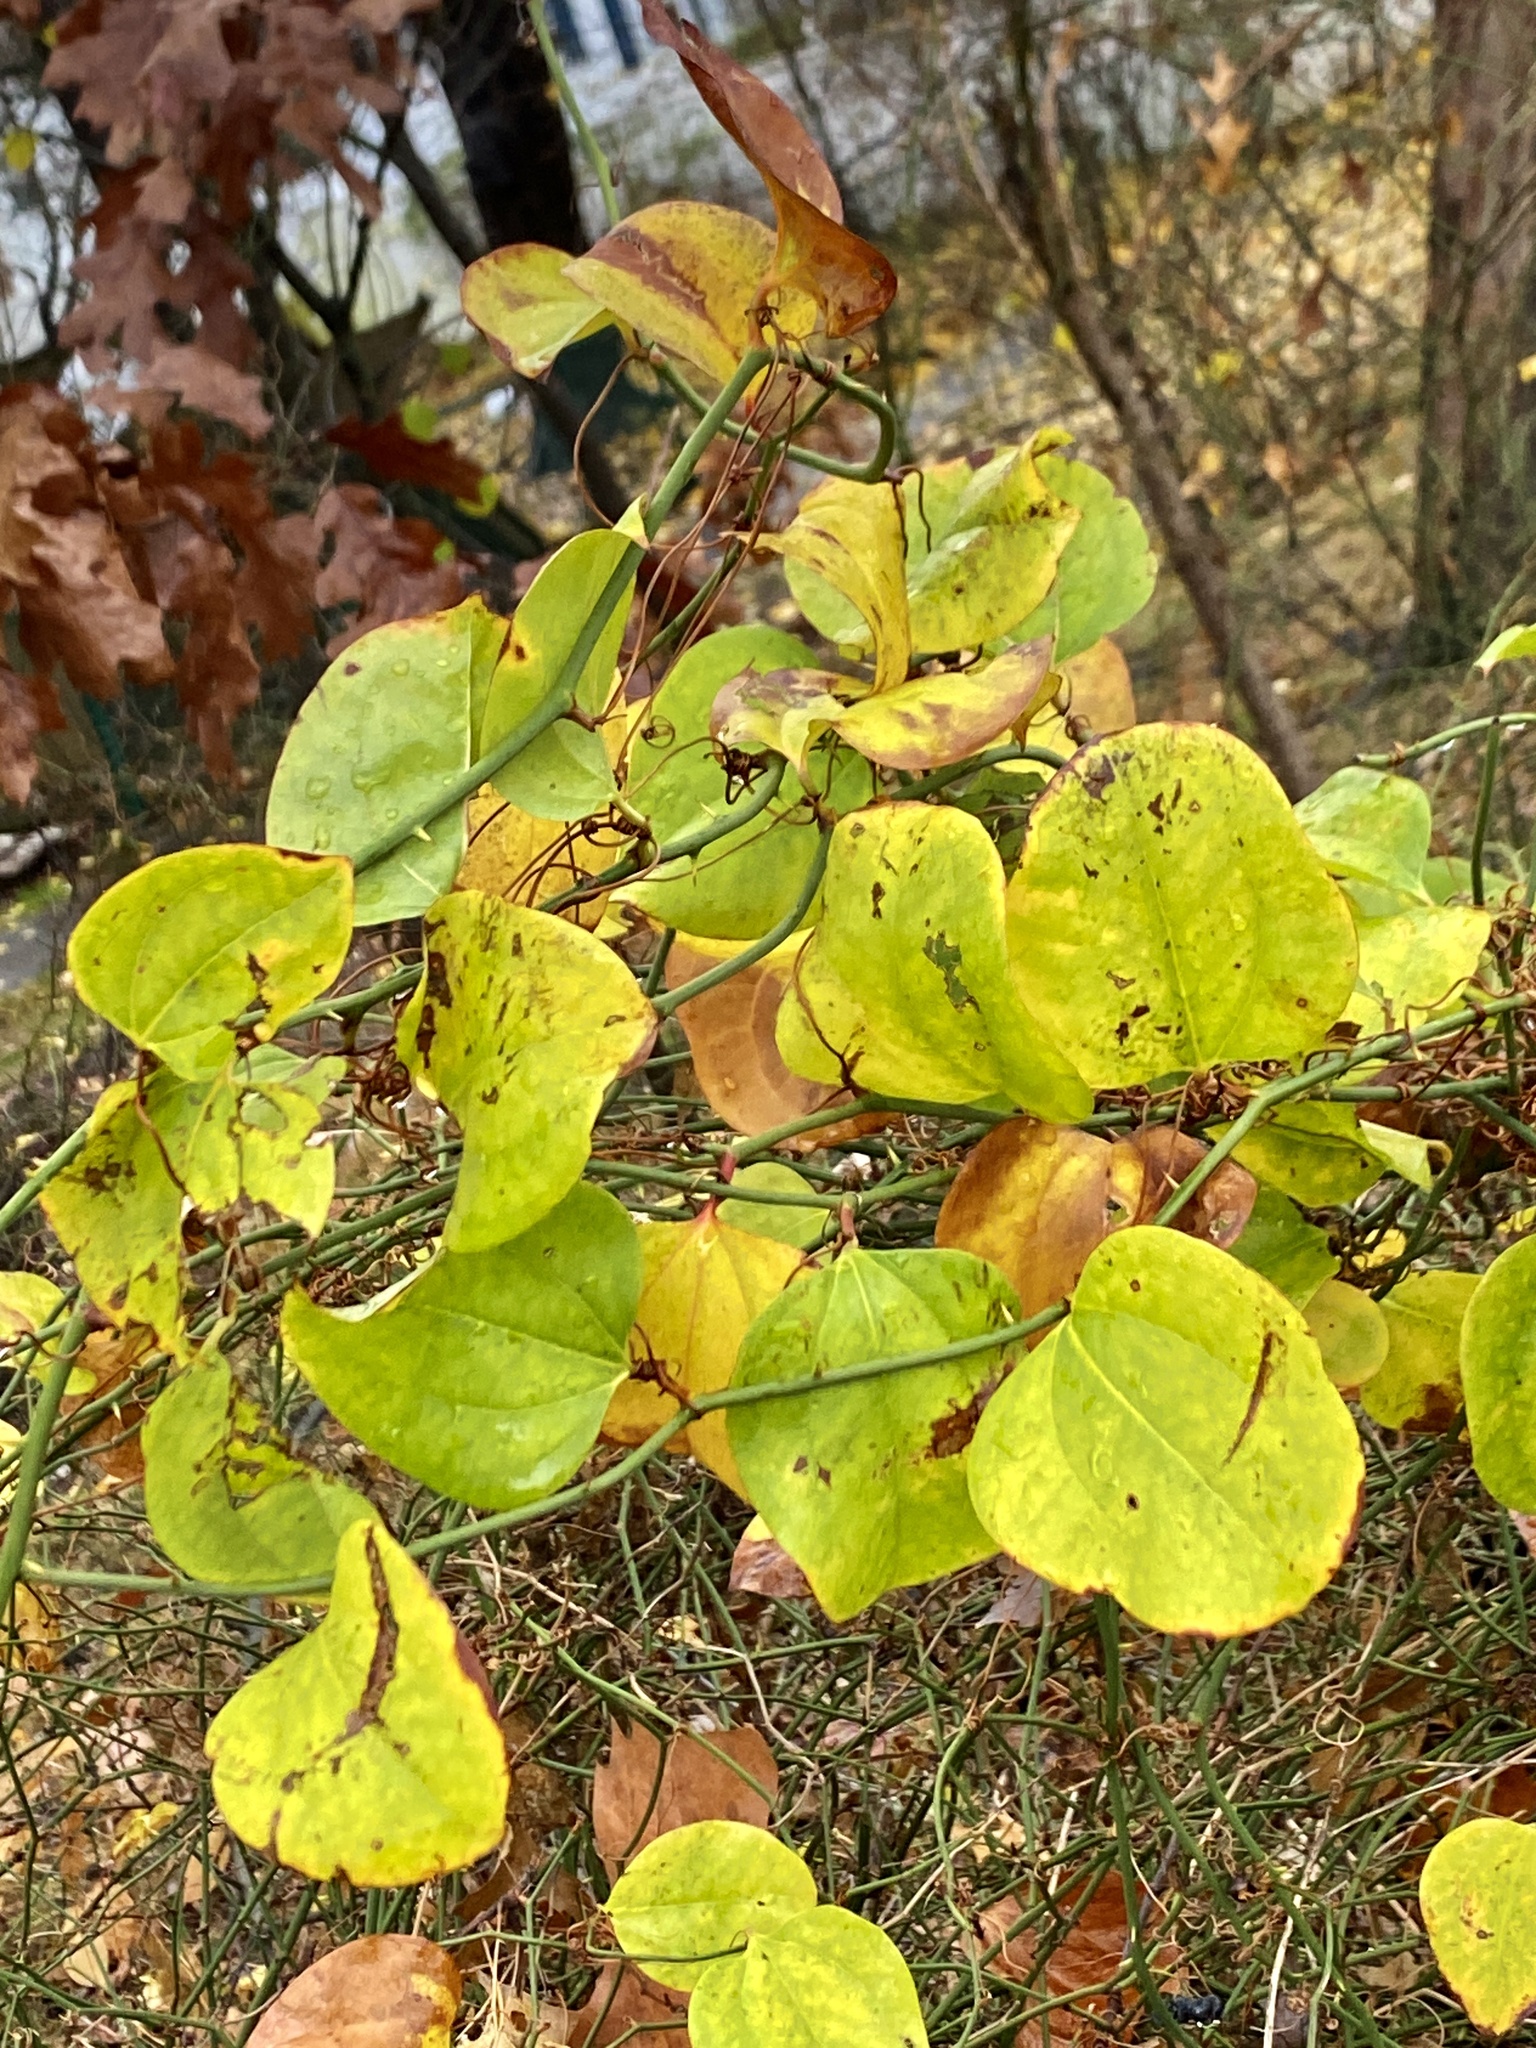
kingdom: Plantae
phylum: Tracheophyta
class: Liliopsida
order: Liliales
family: Smilacaceae
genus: Smilax
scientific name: Smilax rotundifolia
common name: Bullbriar
